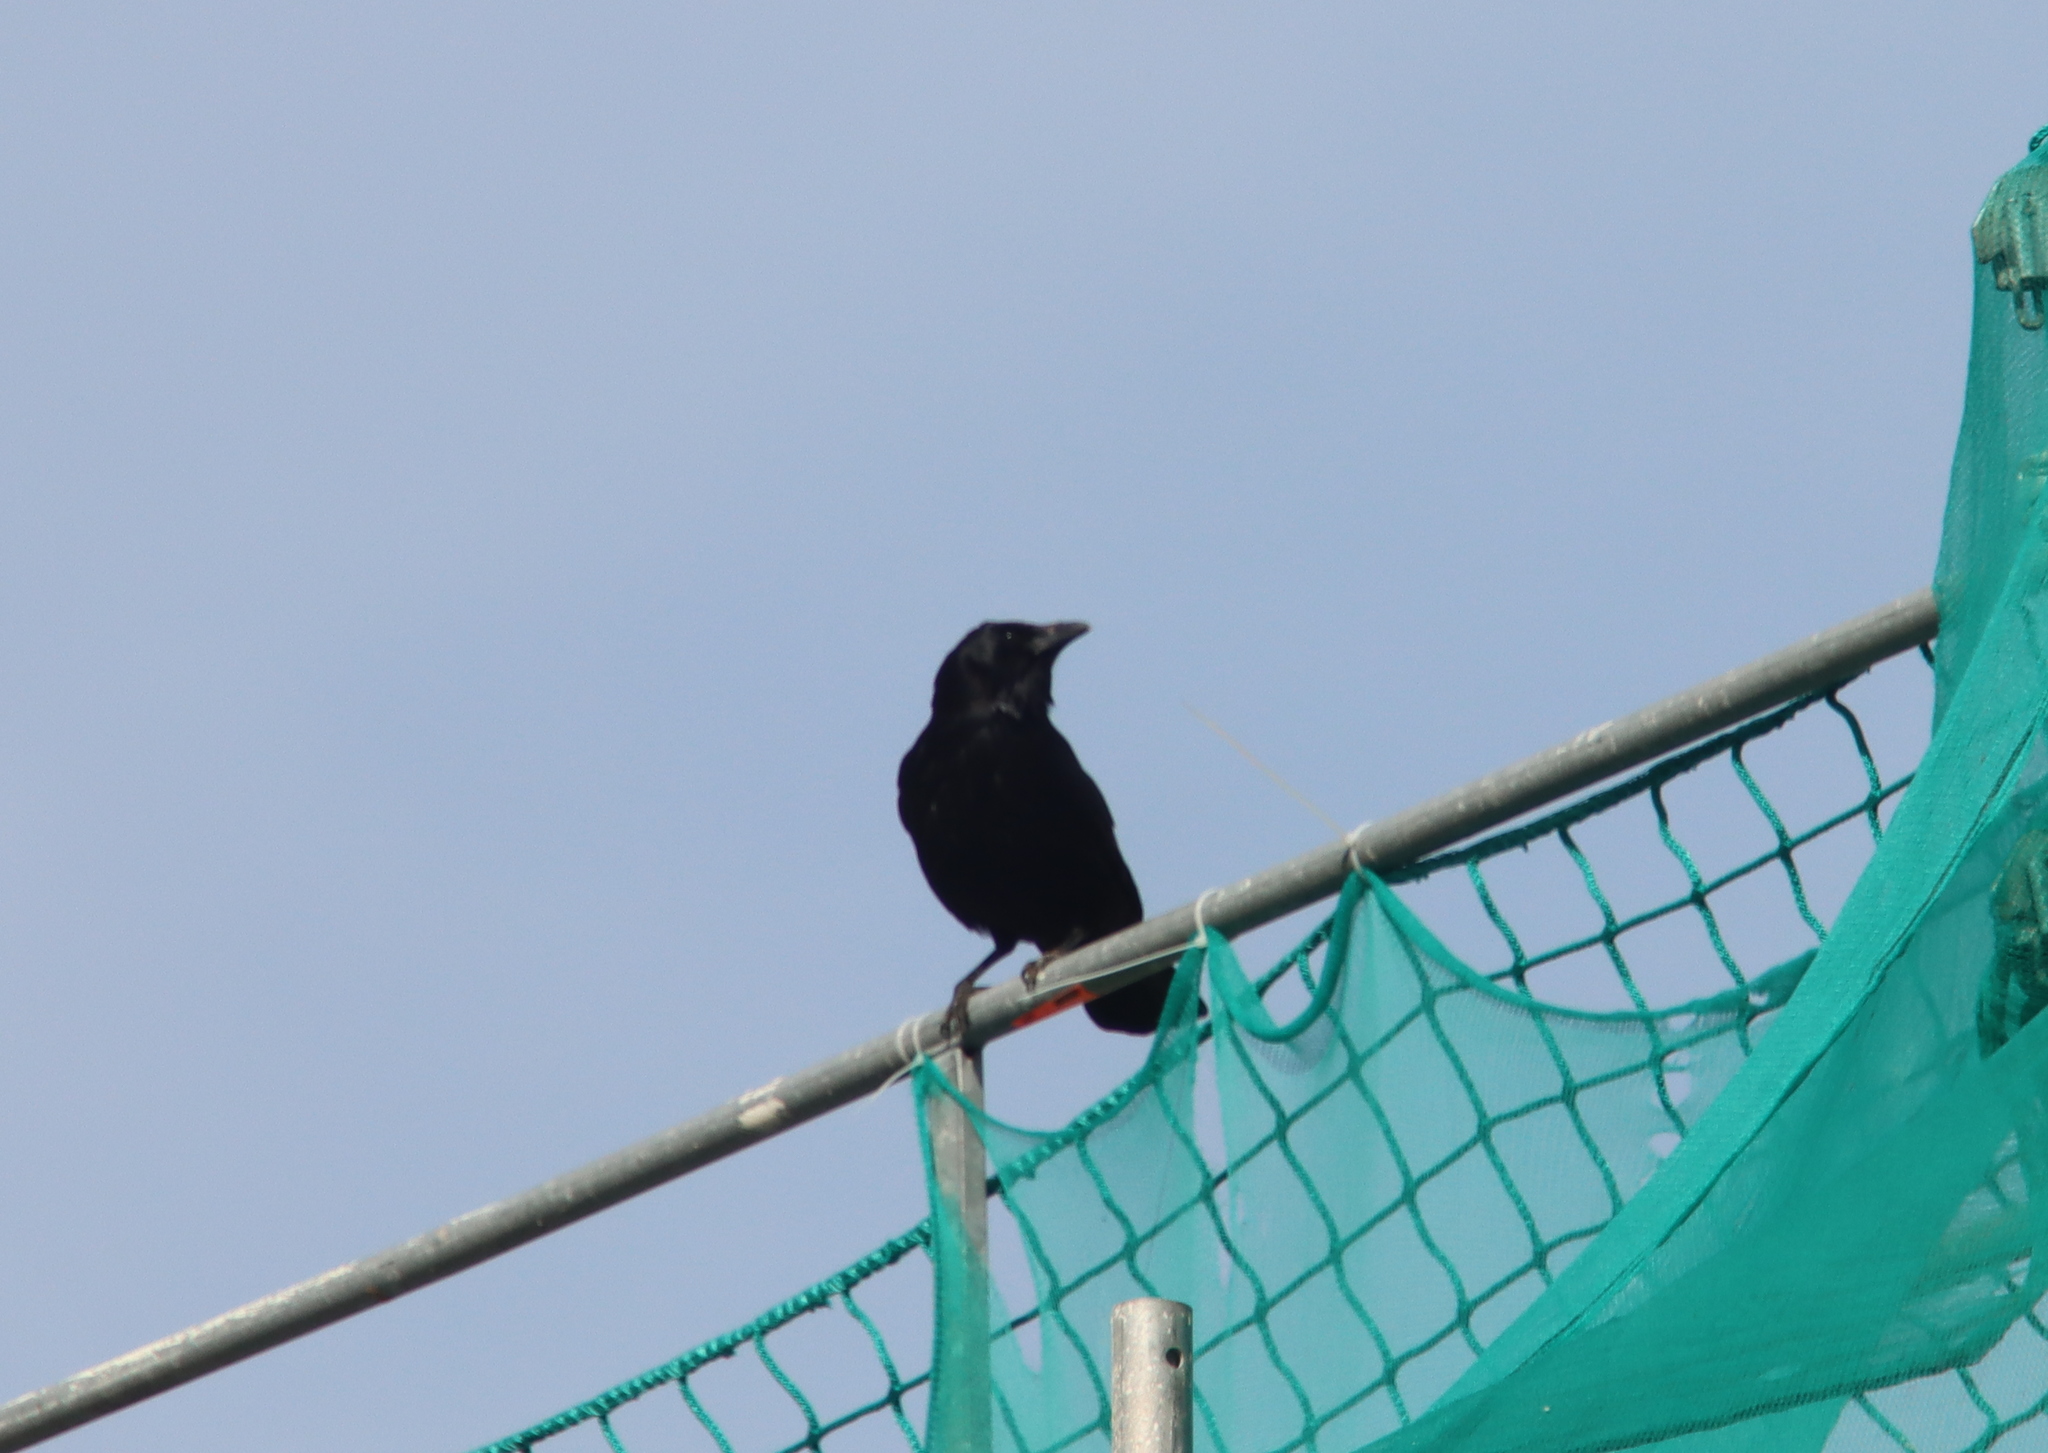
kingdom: Animalia
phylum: Chordata
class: Aves
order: Passeriformes
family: Corvidae
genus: Corvus
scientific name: Corvus corone
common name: Carrion crow
